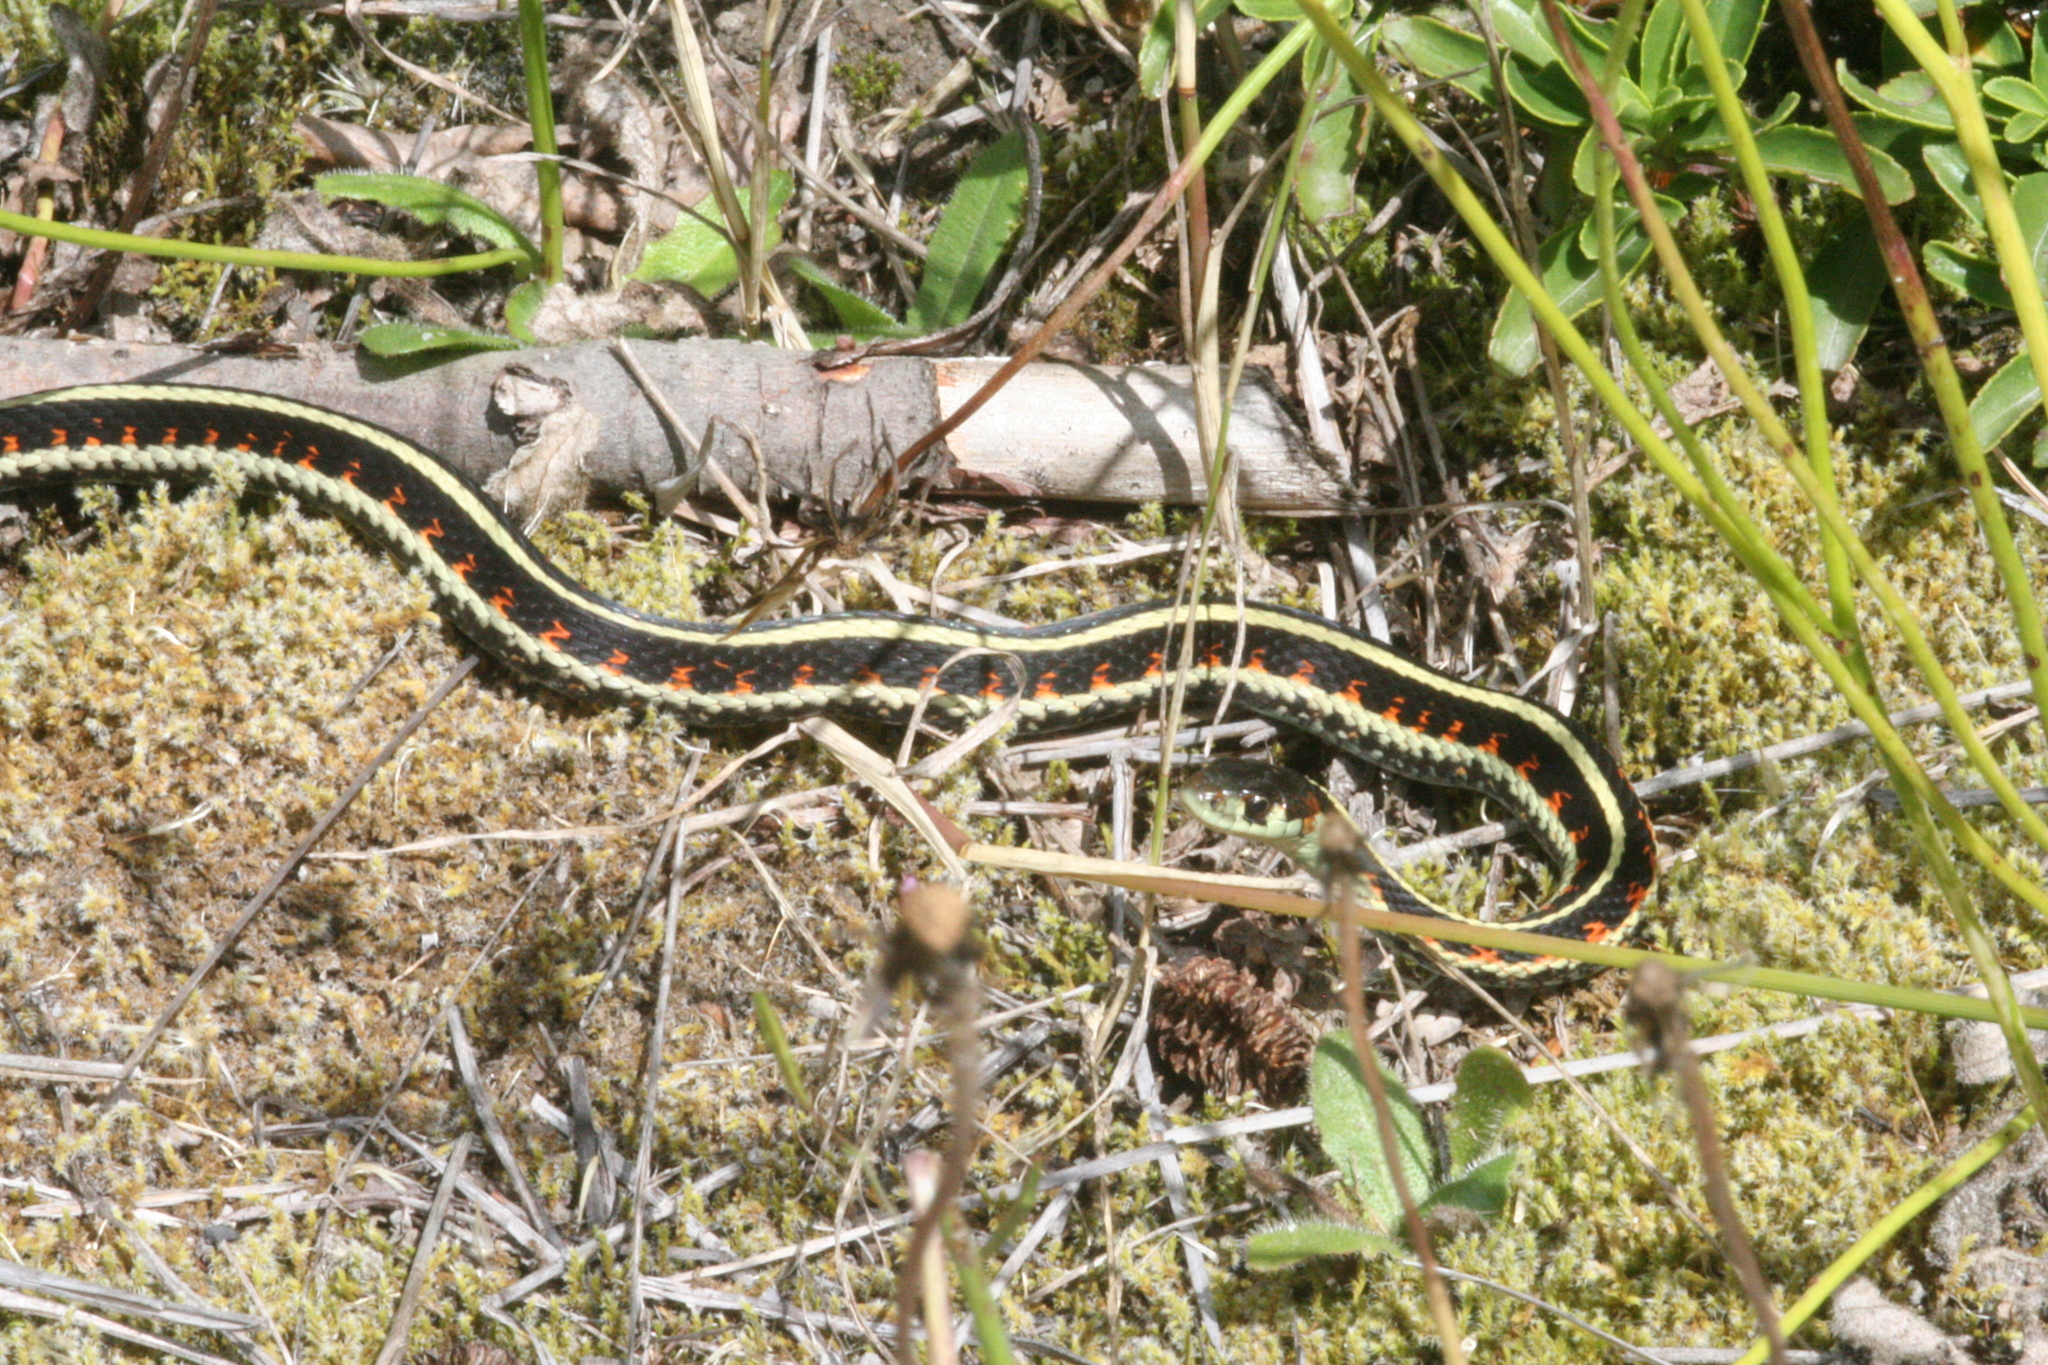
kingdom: Animalia
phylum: Chordata
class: Squamata
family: Colubridae
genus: Thamnophis
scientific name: Thamnophis sirtalis
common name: Common garter snake
